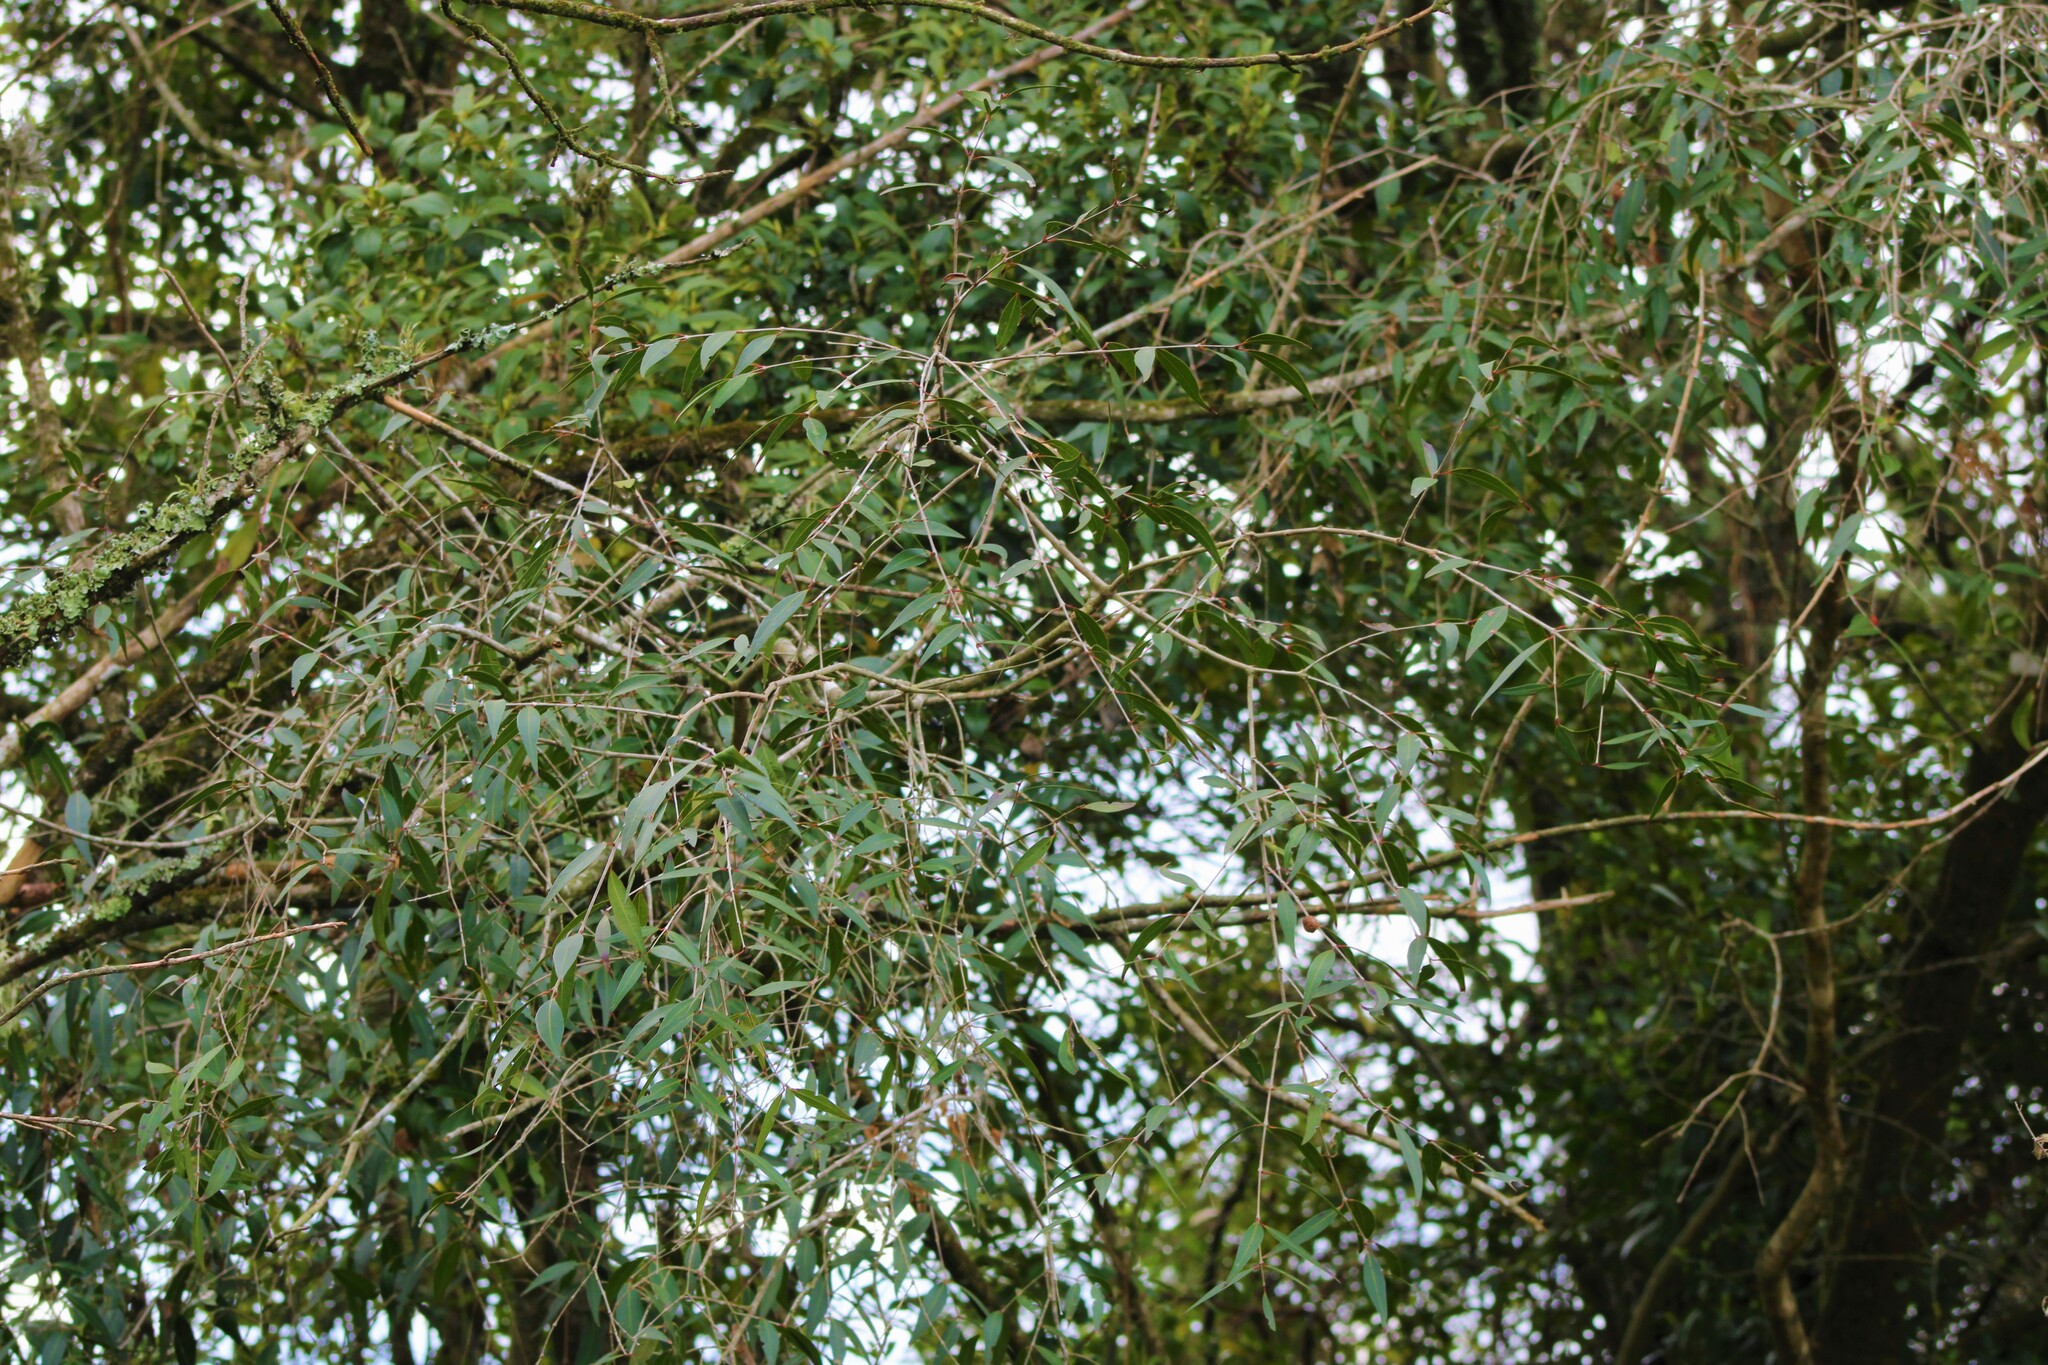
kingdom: Plantae
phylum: Tracheophyta
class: Magnoliopsida
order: Myrtales
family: Myrtaceae
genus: Blepharocalyx
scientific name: Blepharocalyx salicifolius
